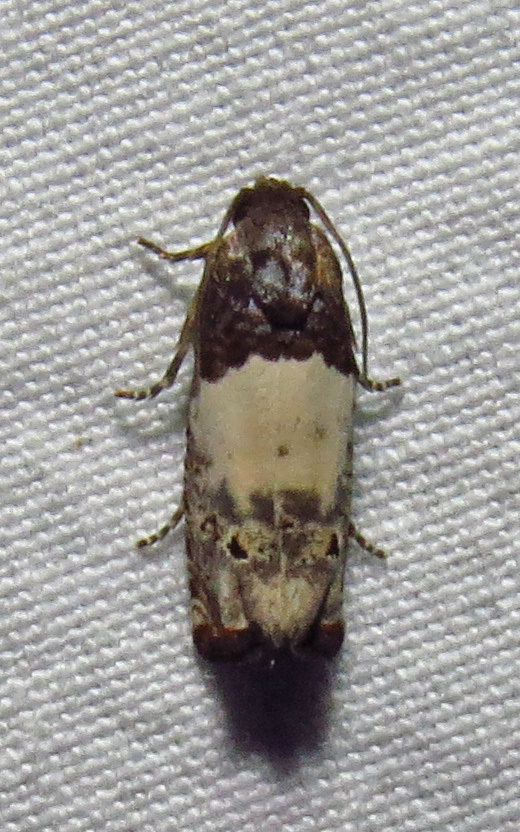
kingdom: Animalia
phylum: Arthropoda
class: Insecta
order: Lepidoptera
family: Tortricidae
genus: Epiblema
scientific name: Epiblema scudderiana
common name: Goldenrod gall moth
